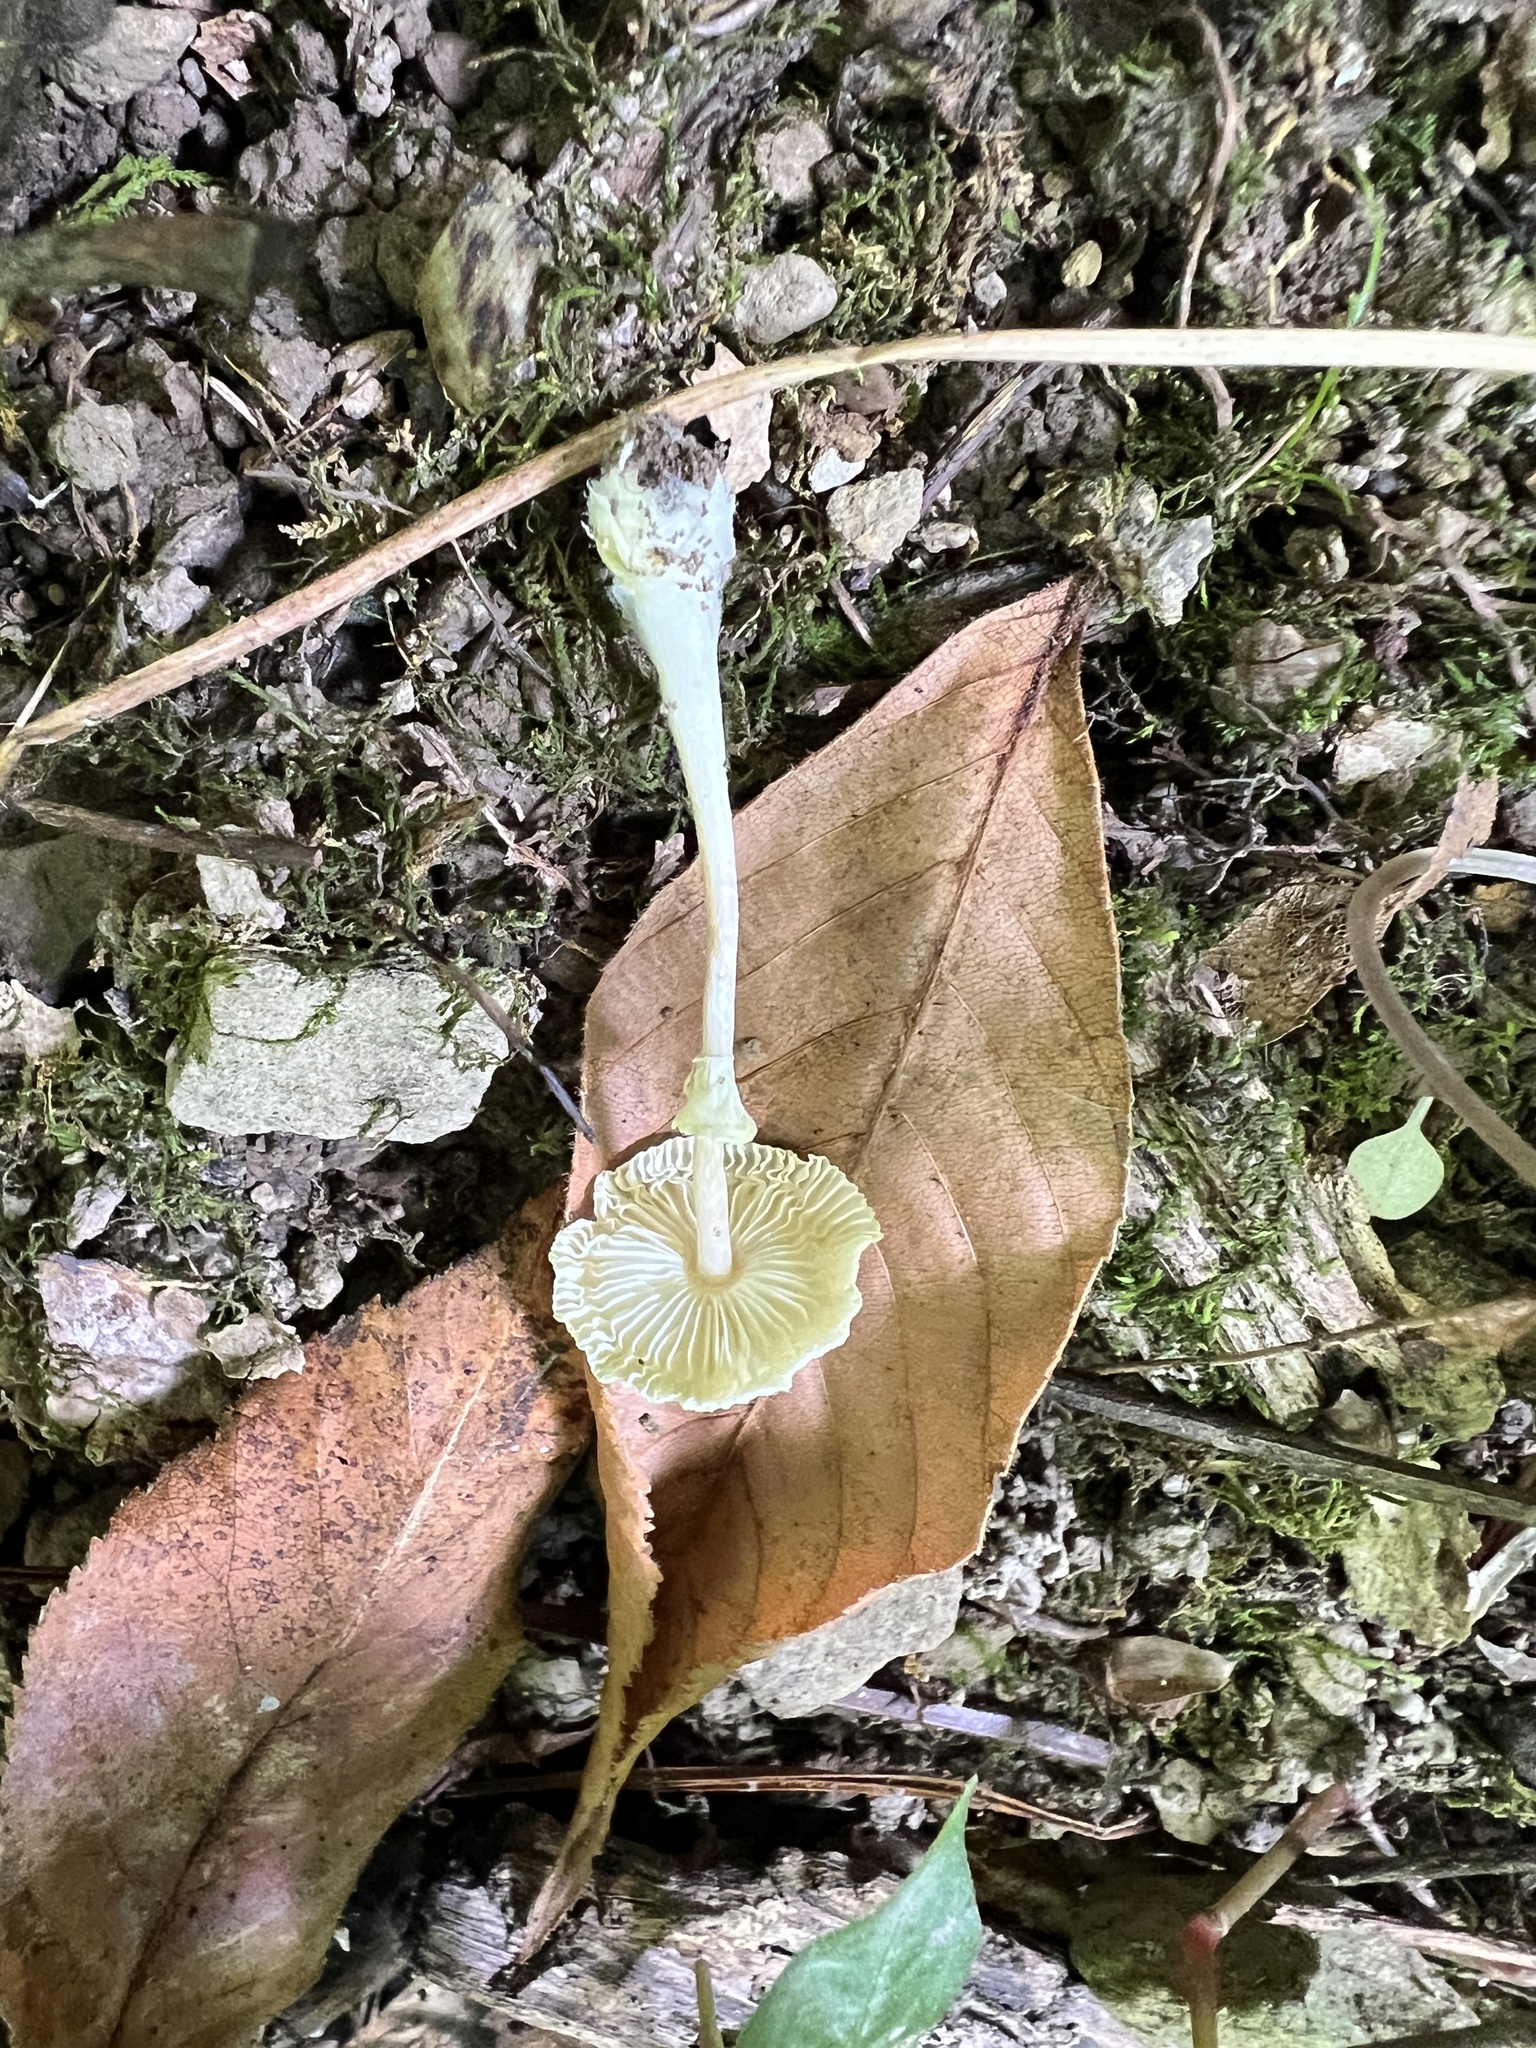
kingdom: Fungi
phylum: Basidiomycota
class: Agaricomycetes
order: Agaricales
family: Agaricaceae
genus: Leucocoprinus
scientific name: Leucocoprinus fragilissimus
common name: Fragile dapperling
